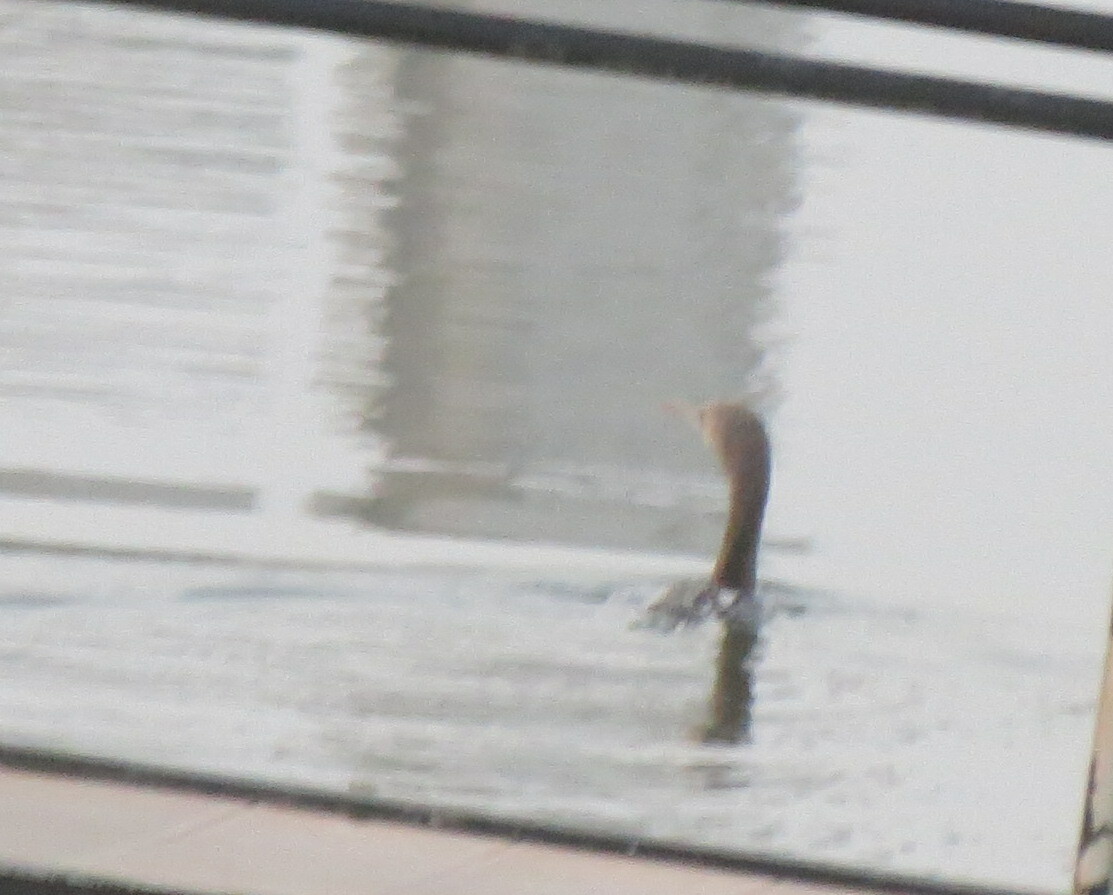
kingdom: Animalia
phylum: Chordata
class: Aves
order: Suliformes
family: Phalacrocoracidae
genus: Phalacrocorax
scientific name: Phalacrocorax nigrogularis
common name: Socotra cormorant
